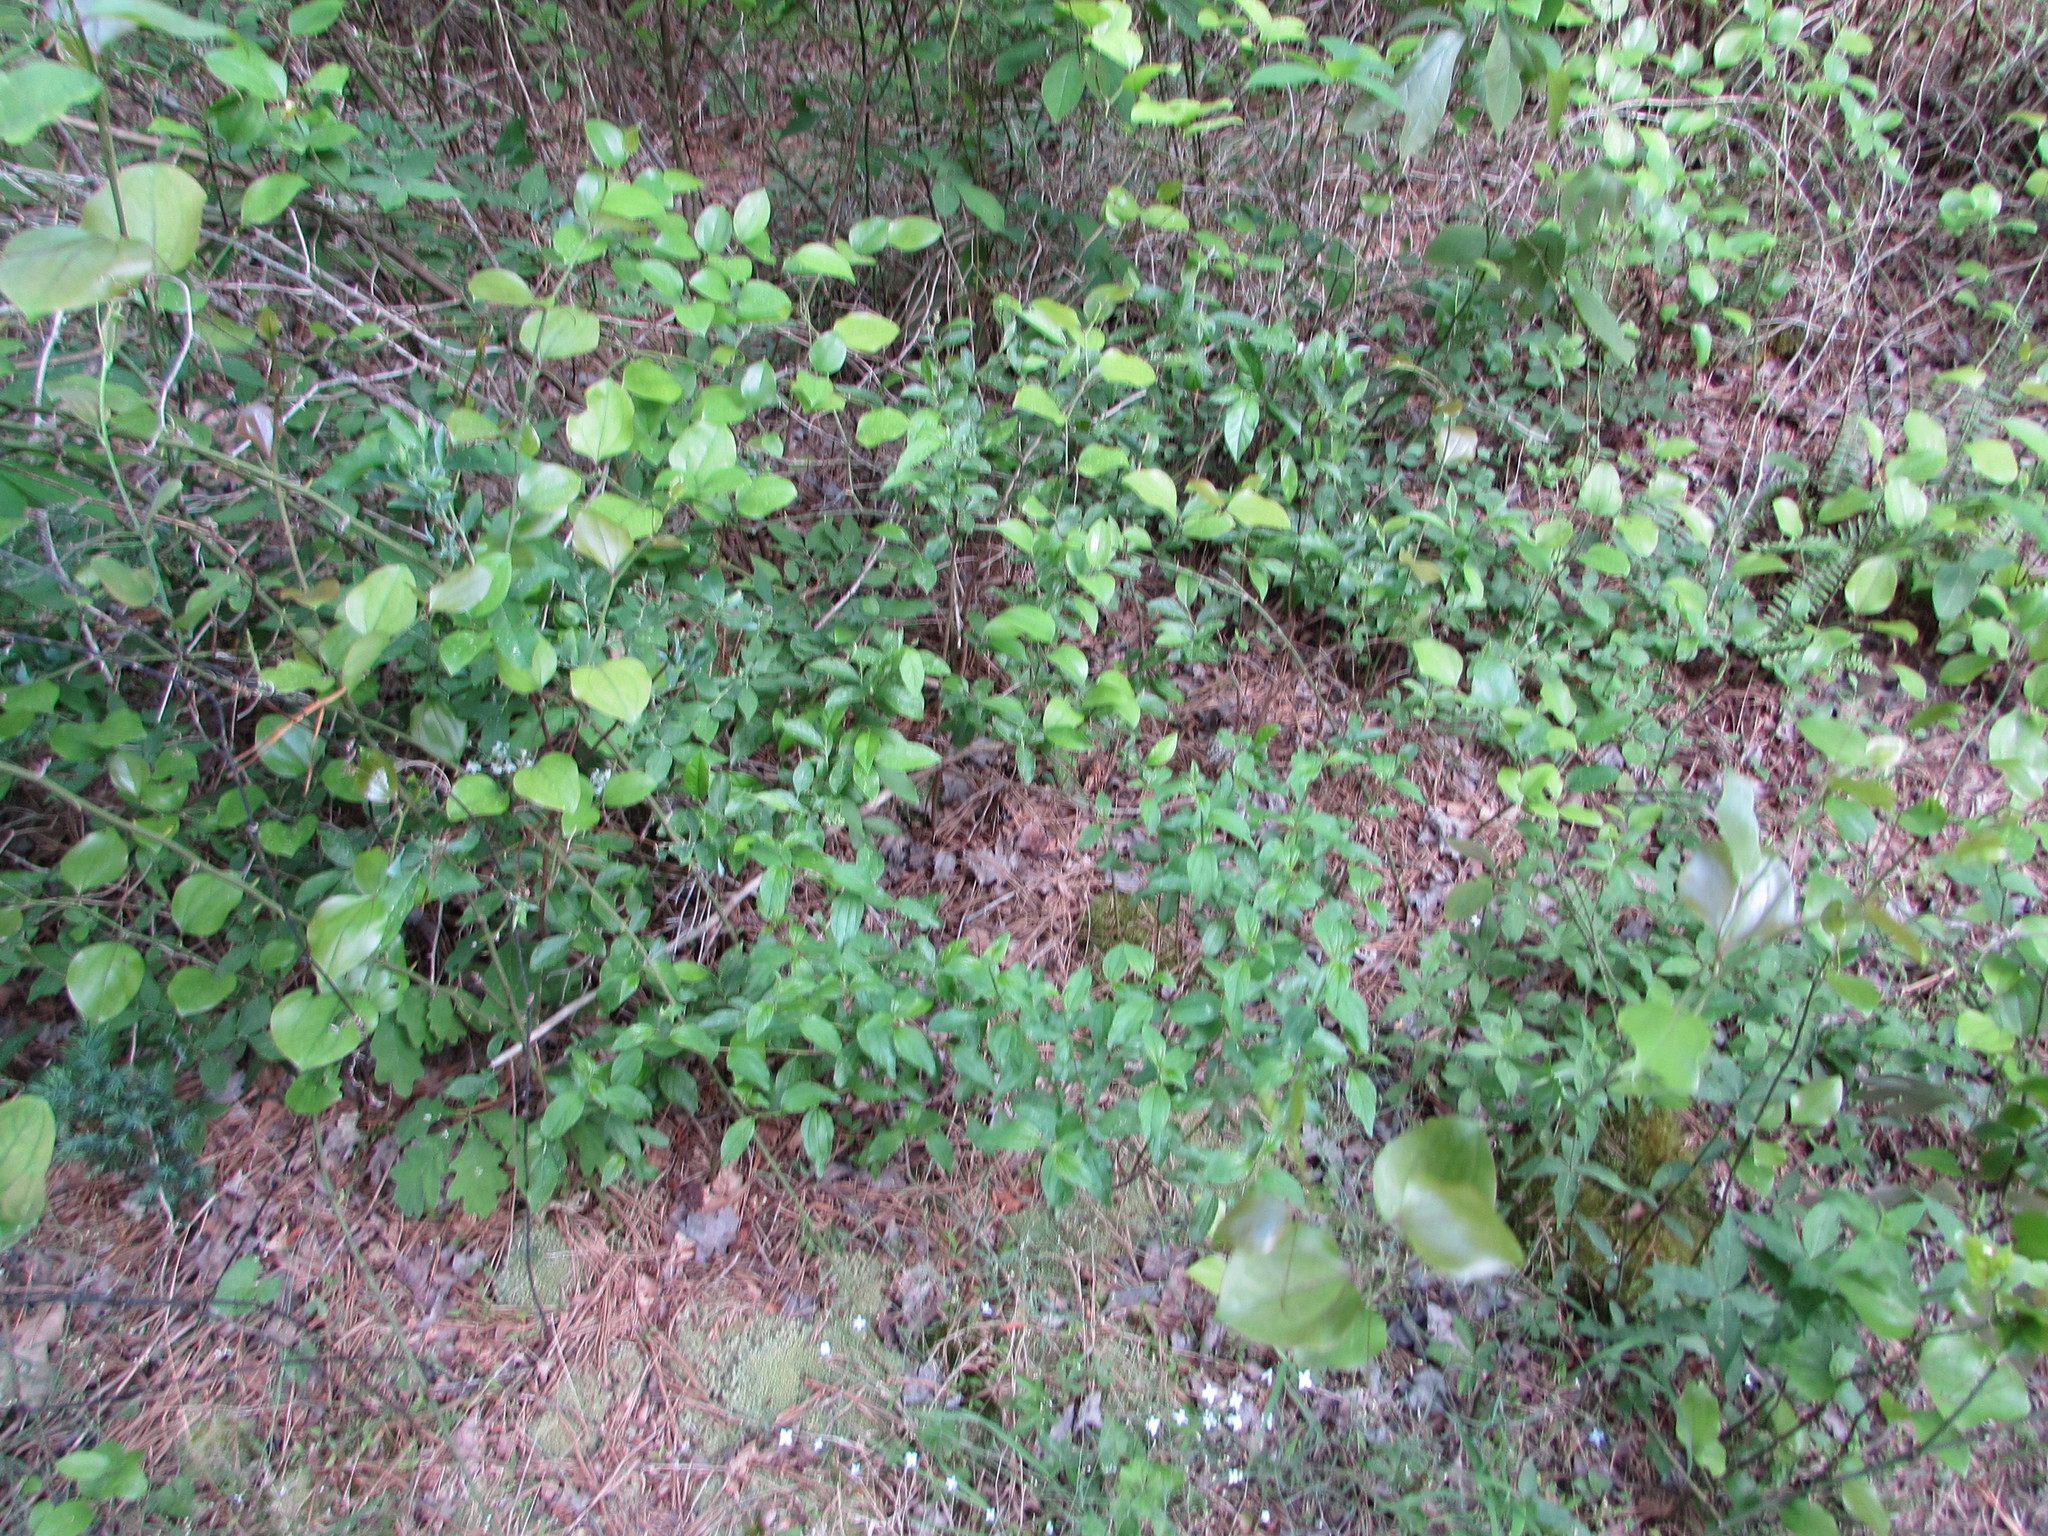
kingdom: Plantae
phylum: Tracheophyta
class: Magnoliopsida
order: Rosales
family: Rhamnaceae
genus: Ceanothus
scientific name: Ceanothus americanus
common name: Redroot
